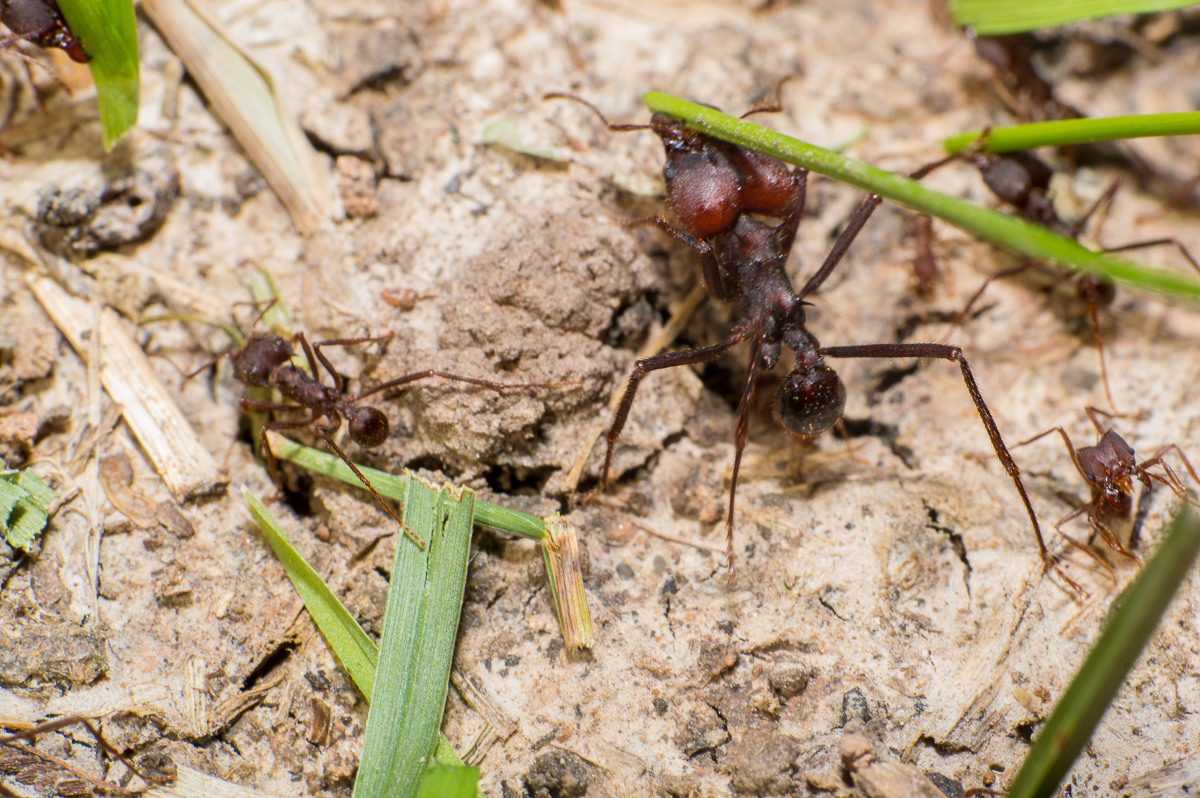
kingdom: Animalia
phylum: Arthropoda
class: Insecta
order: Hymenoptera
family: Formicidae
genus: Atta
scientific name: Atta vollenweideri
